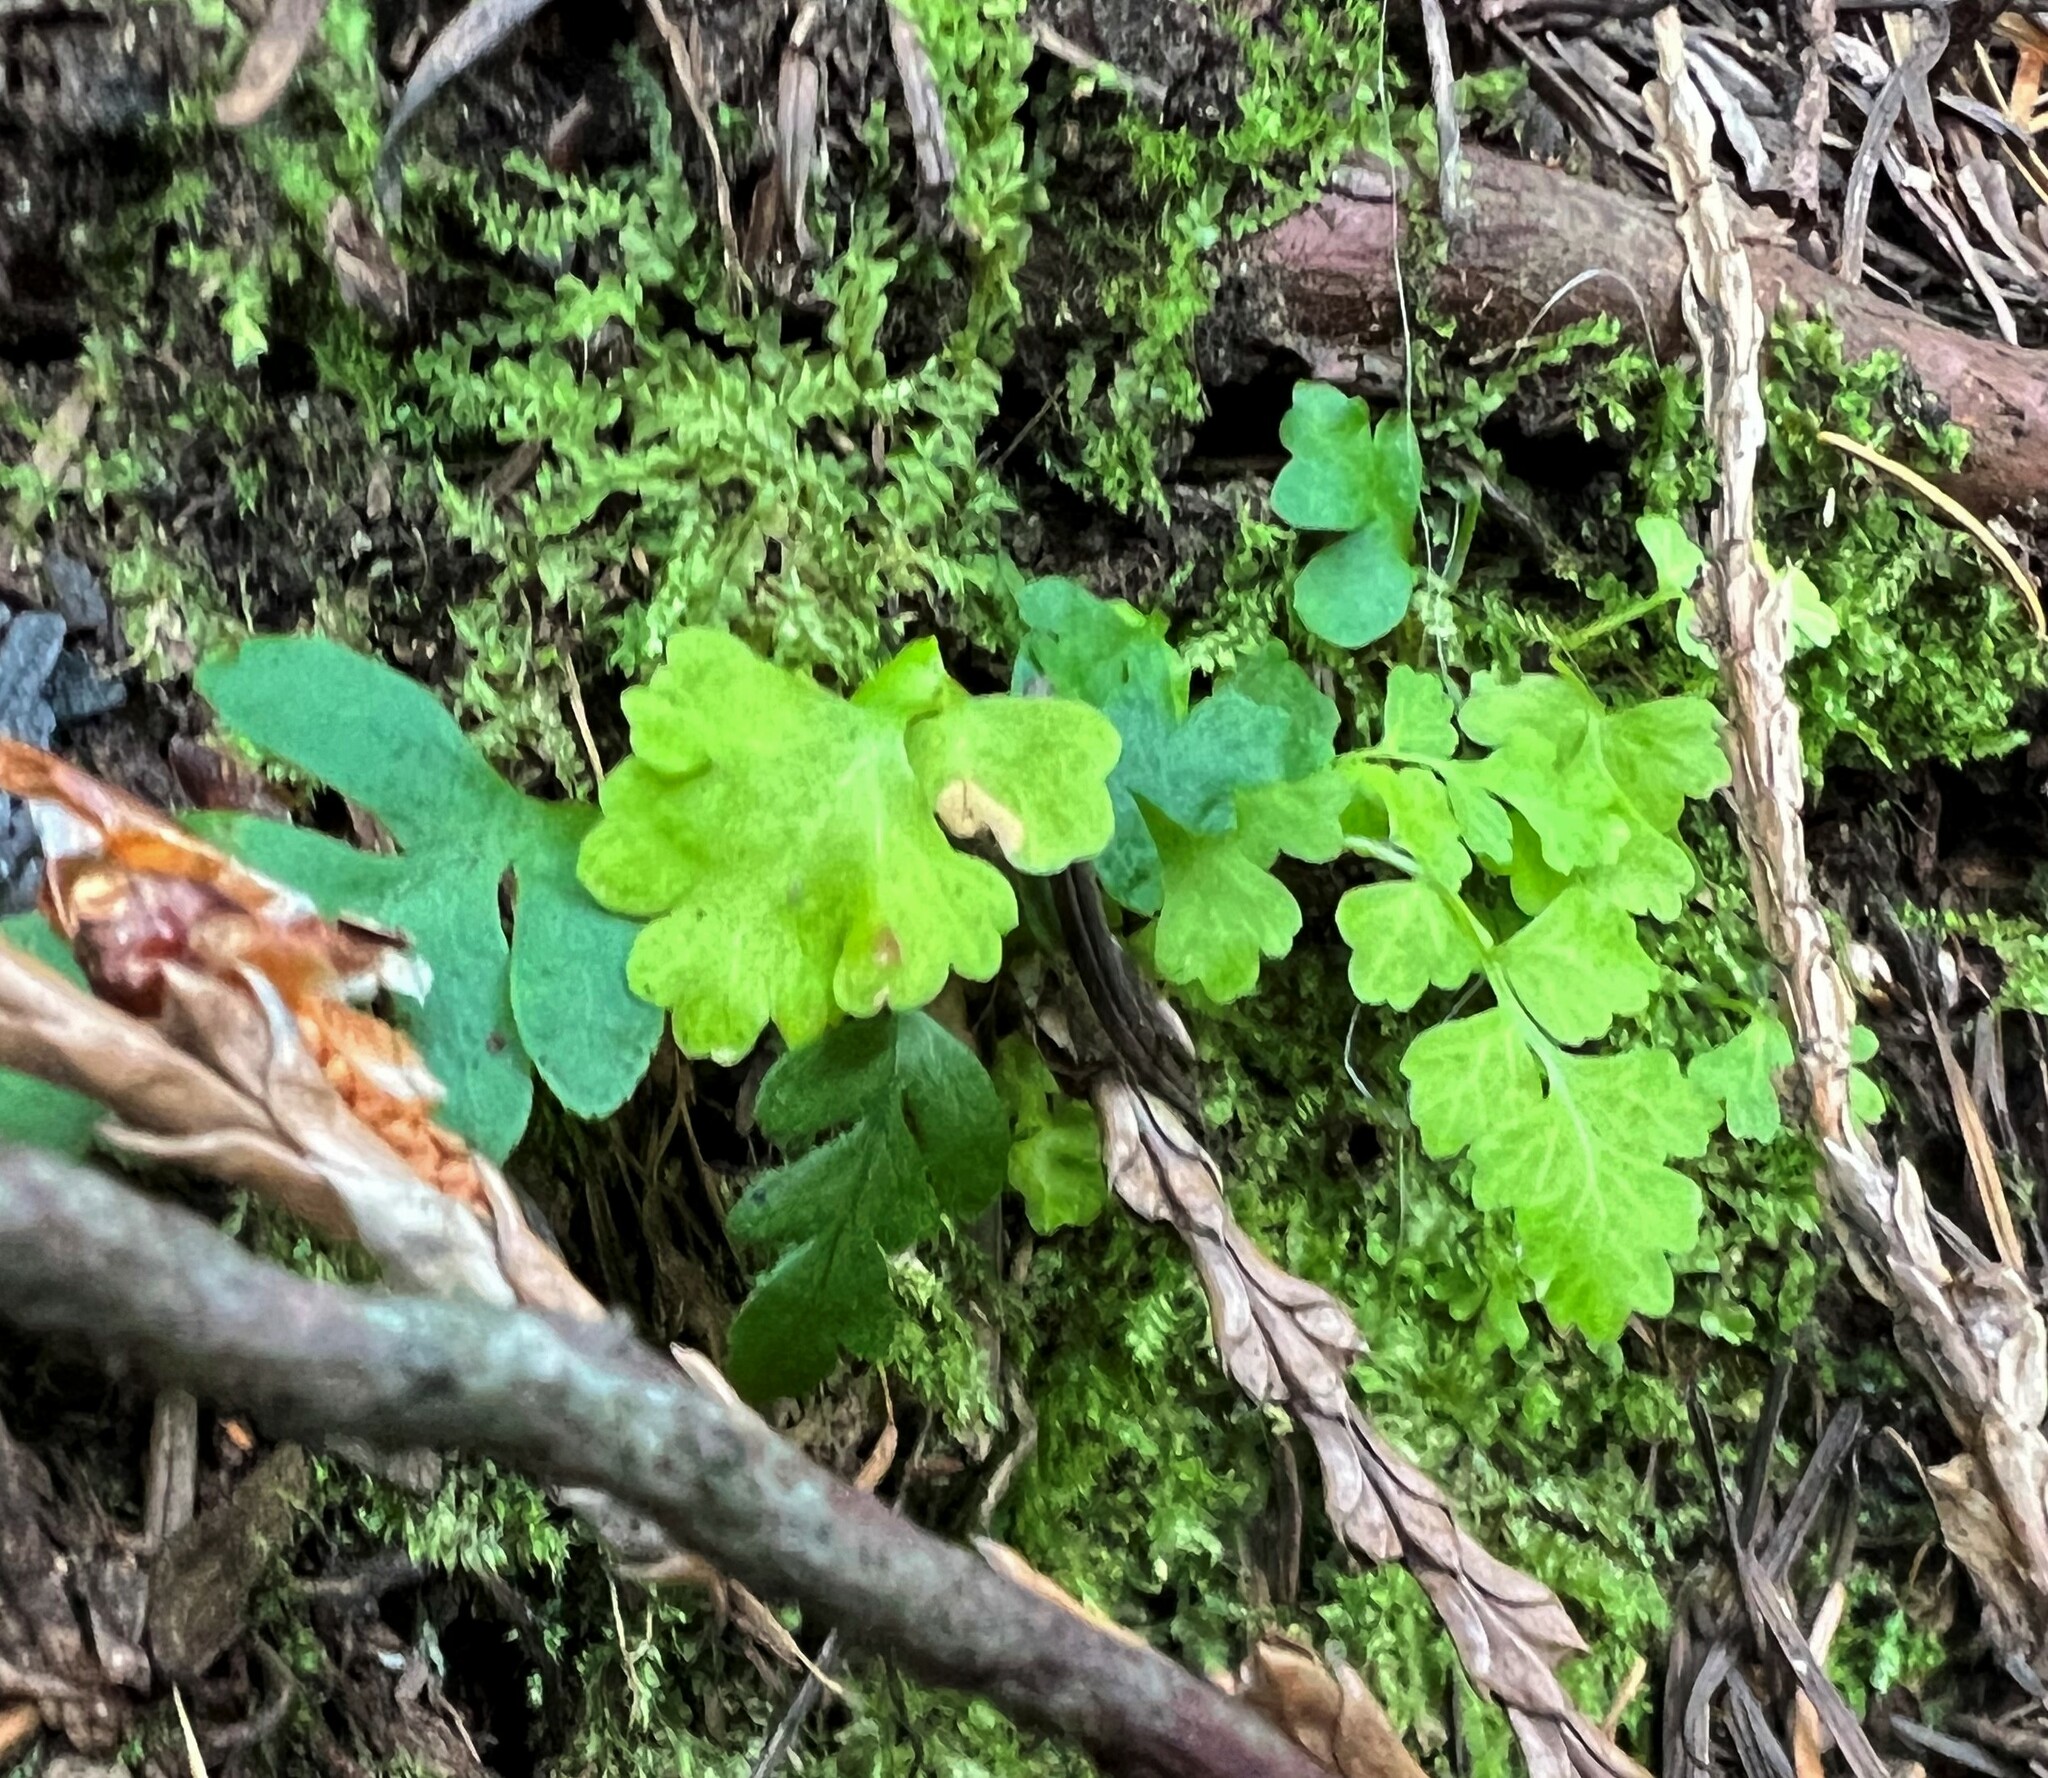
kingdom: Plantae
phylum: Tracheophyta
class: Polypodiopsida
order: Polypodiales
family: Polypodiaceae
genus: Polypodium
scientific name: Polypodium glycyrrhiza
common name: Licorice fern
